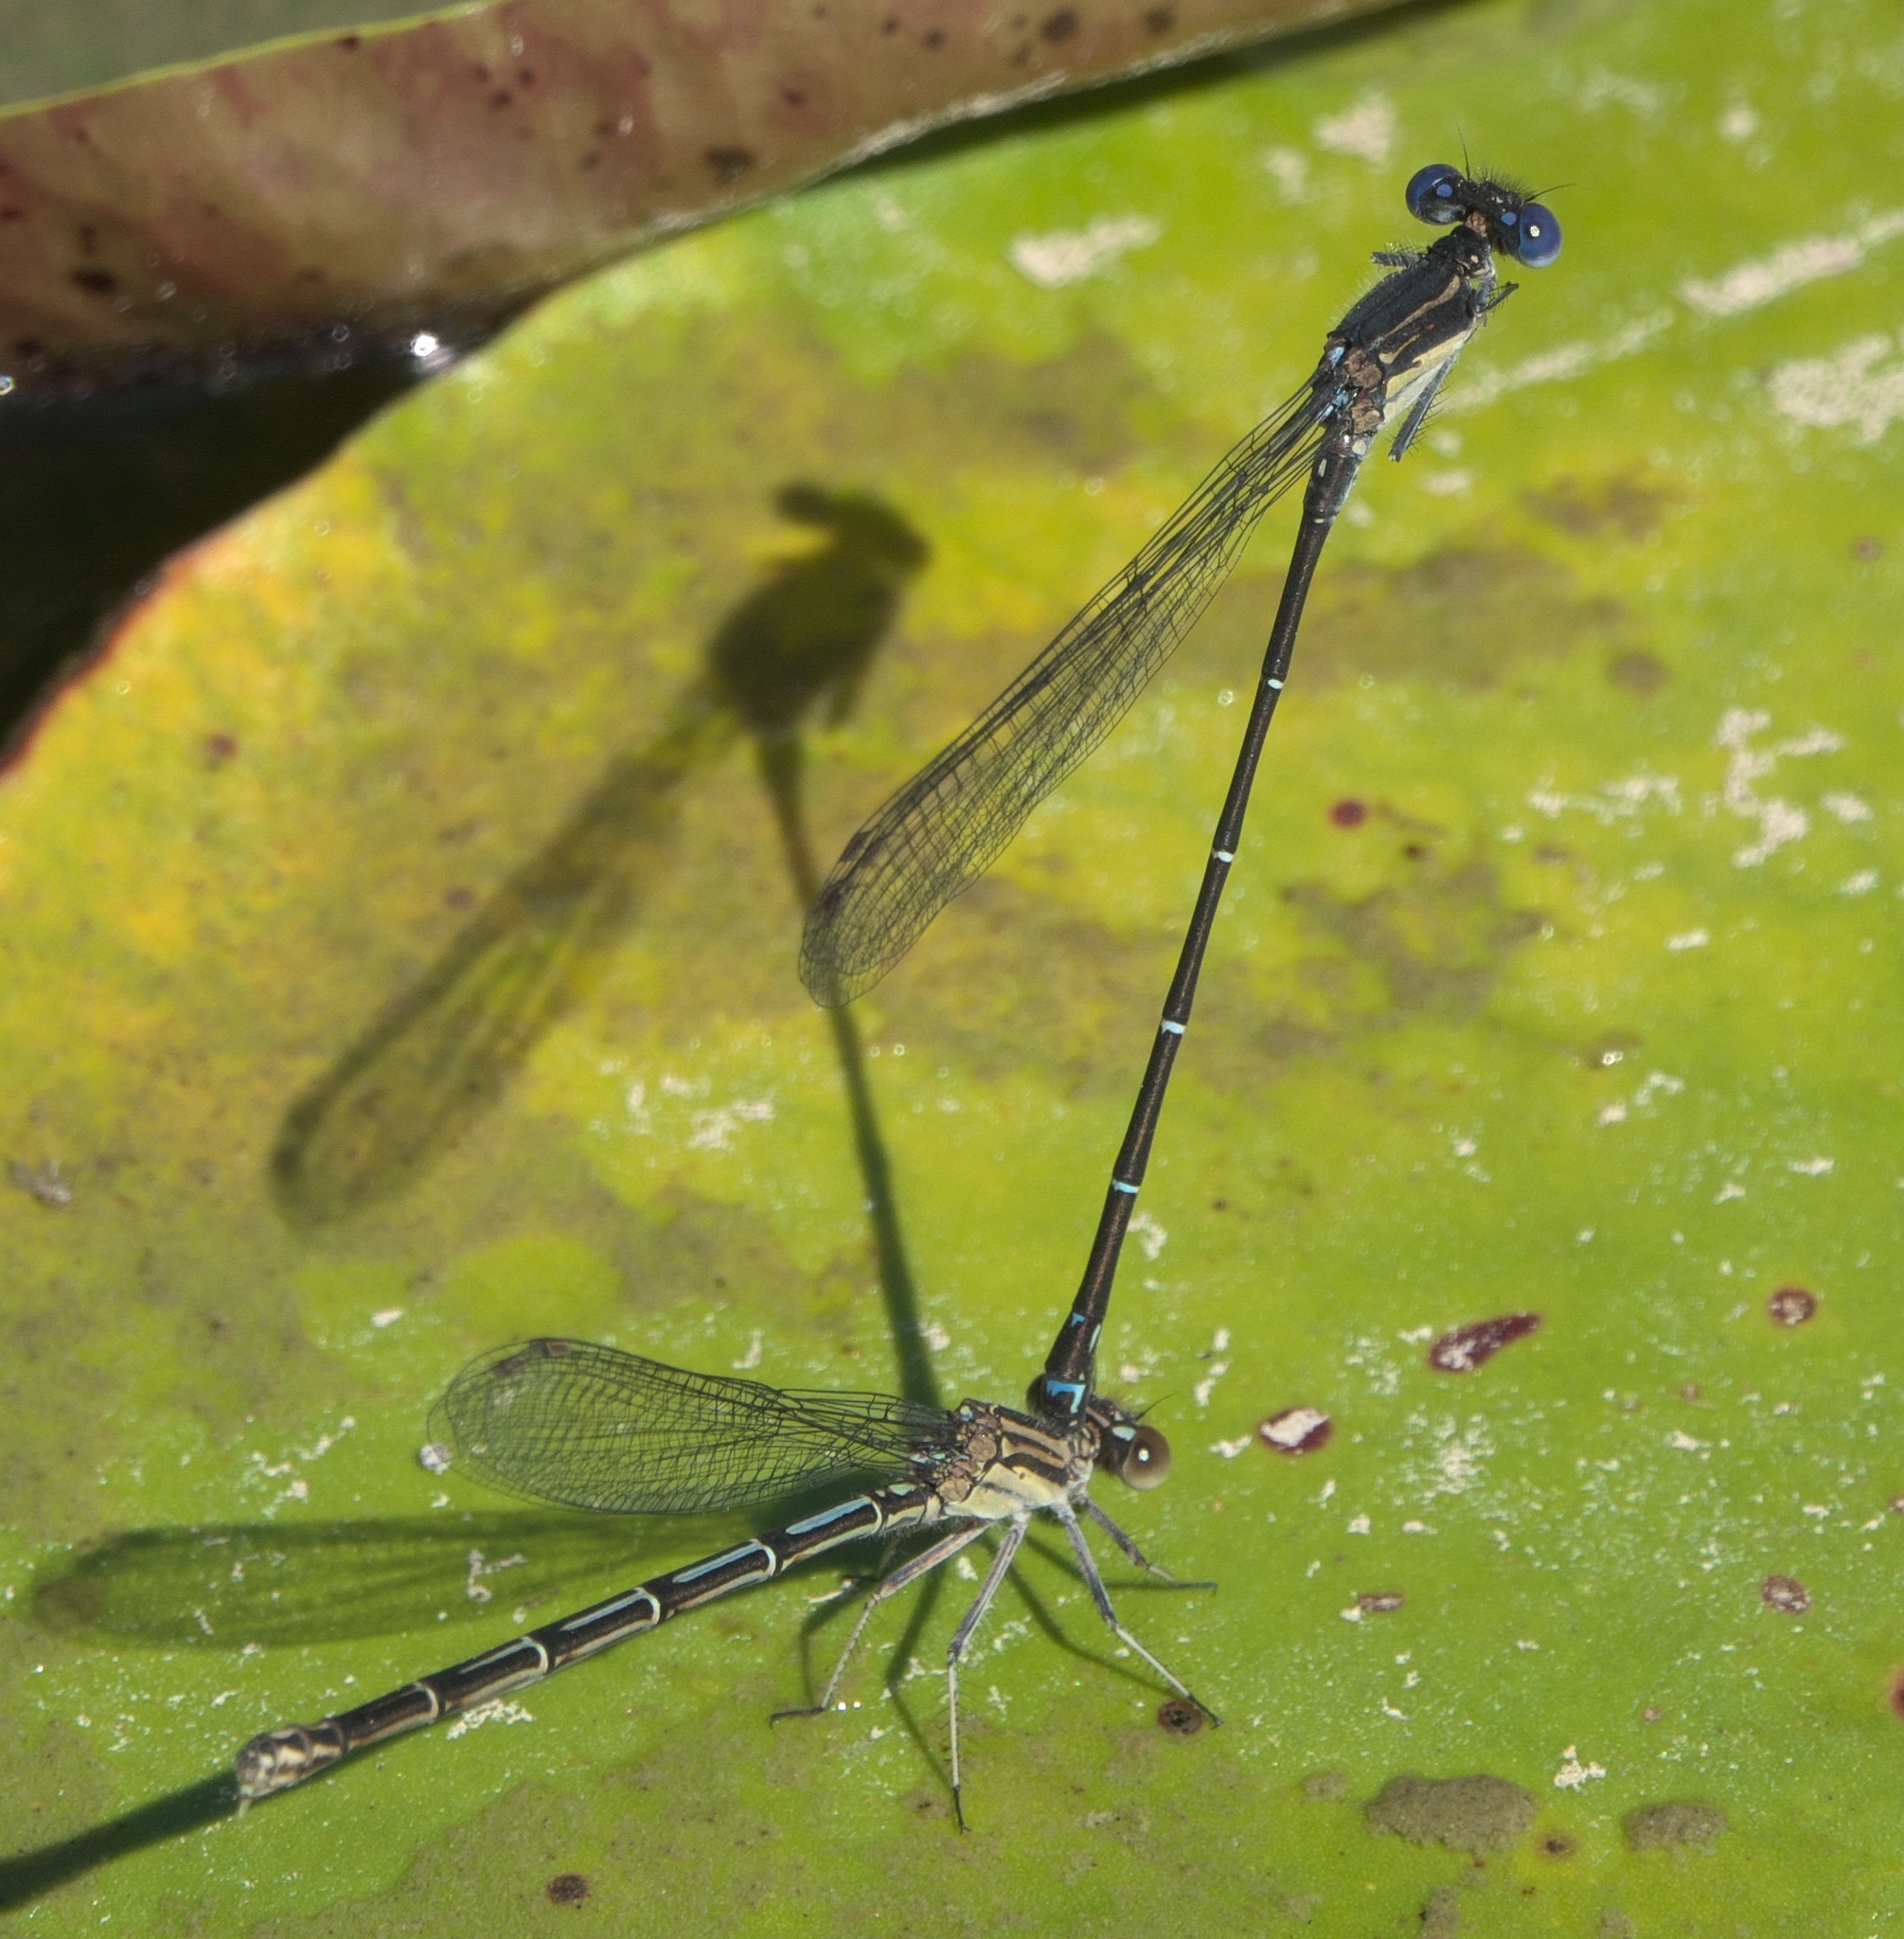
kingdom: Animalia
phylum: Arthropoda
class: Insecta
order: Odonata
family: Coenagrionidae
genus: Argia
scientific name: Argia translata
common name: Dusky dancer
